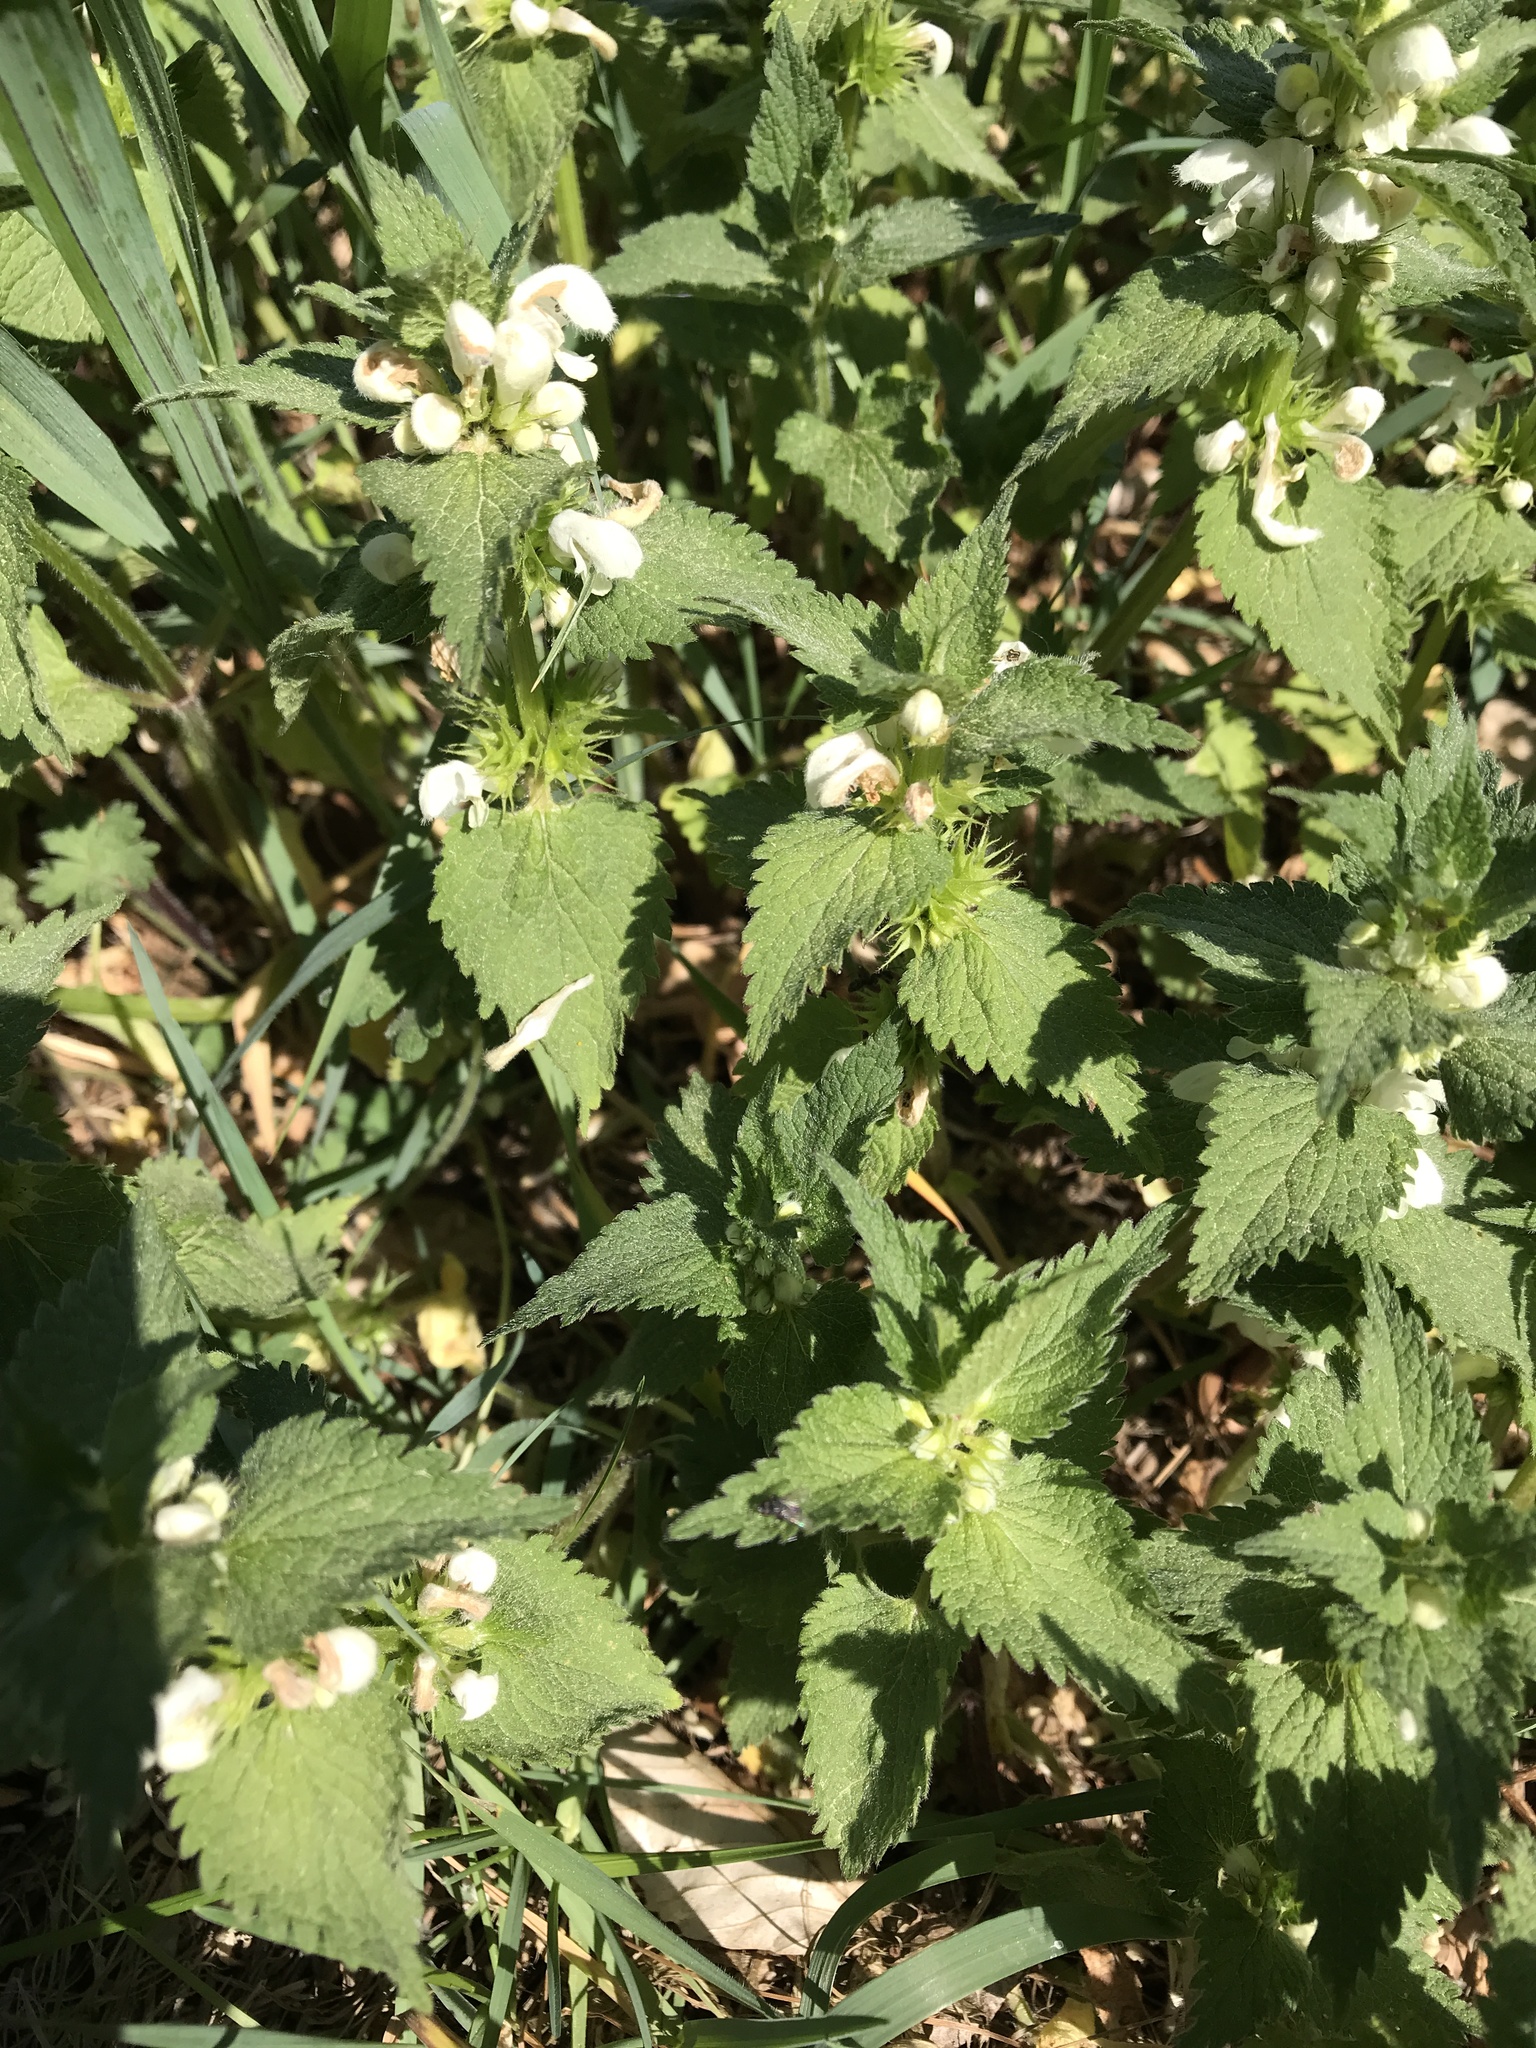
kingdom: Plantae
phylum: Tracheophyta
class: Magnoliopsida
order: Lamiales
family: Lamiaceae
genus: Lamium
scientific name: Lamium album
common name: White dead-nettle
